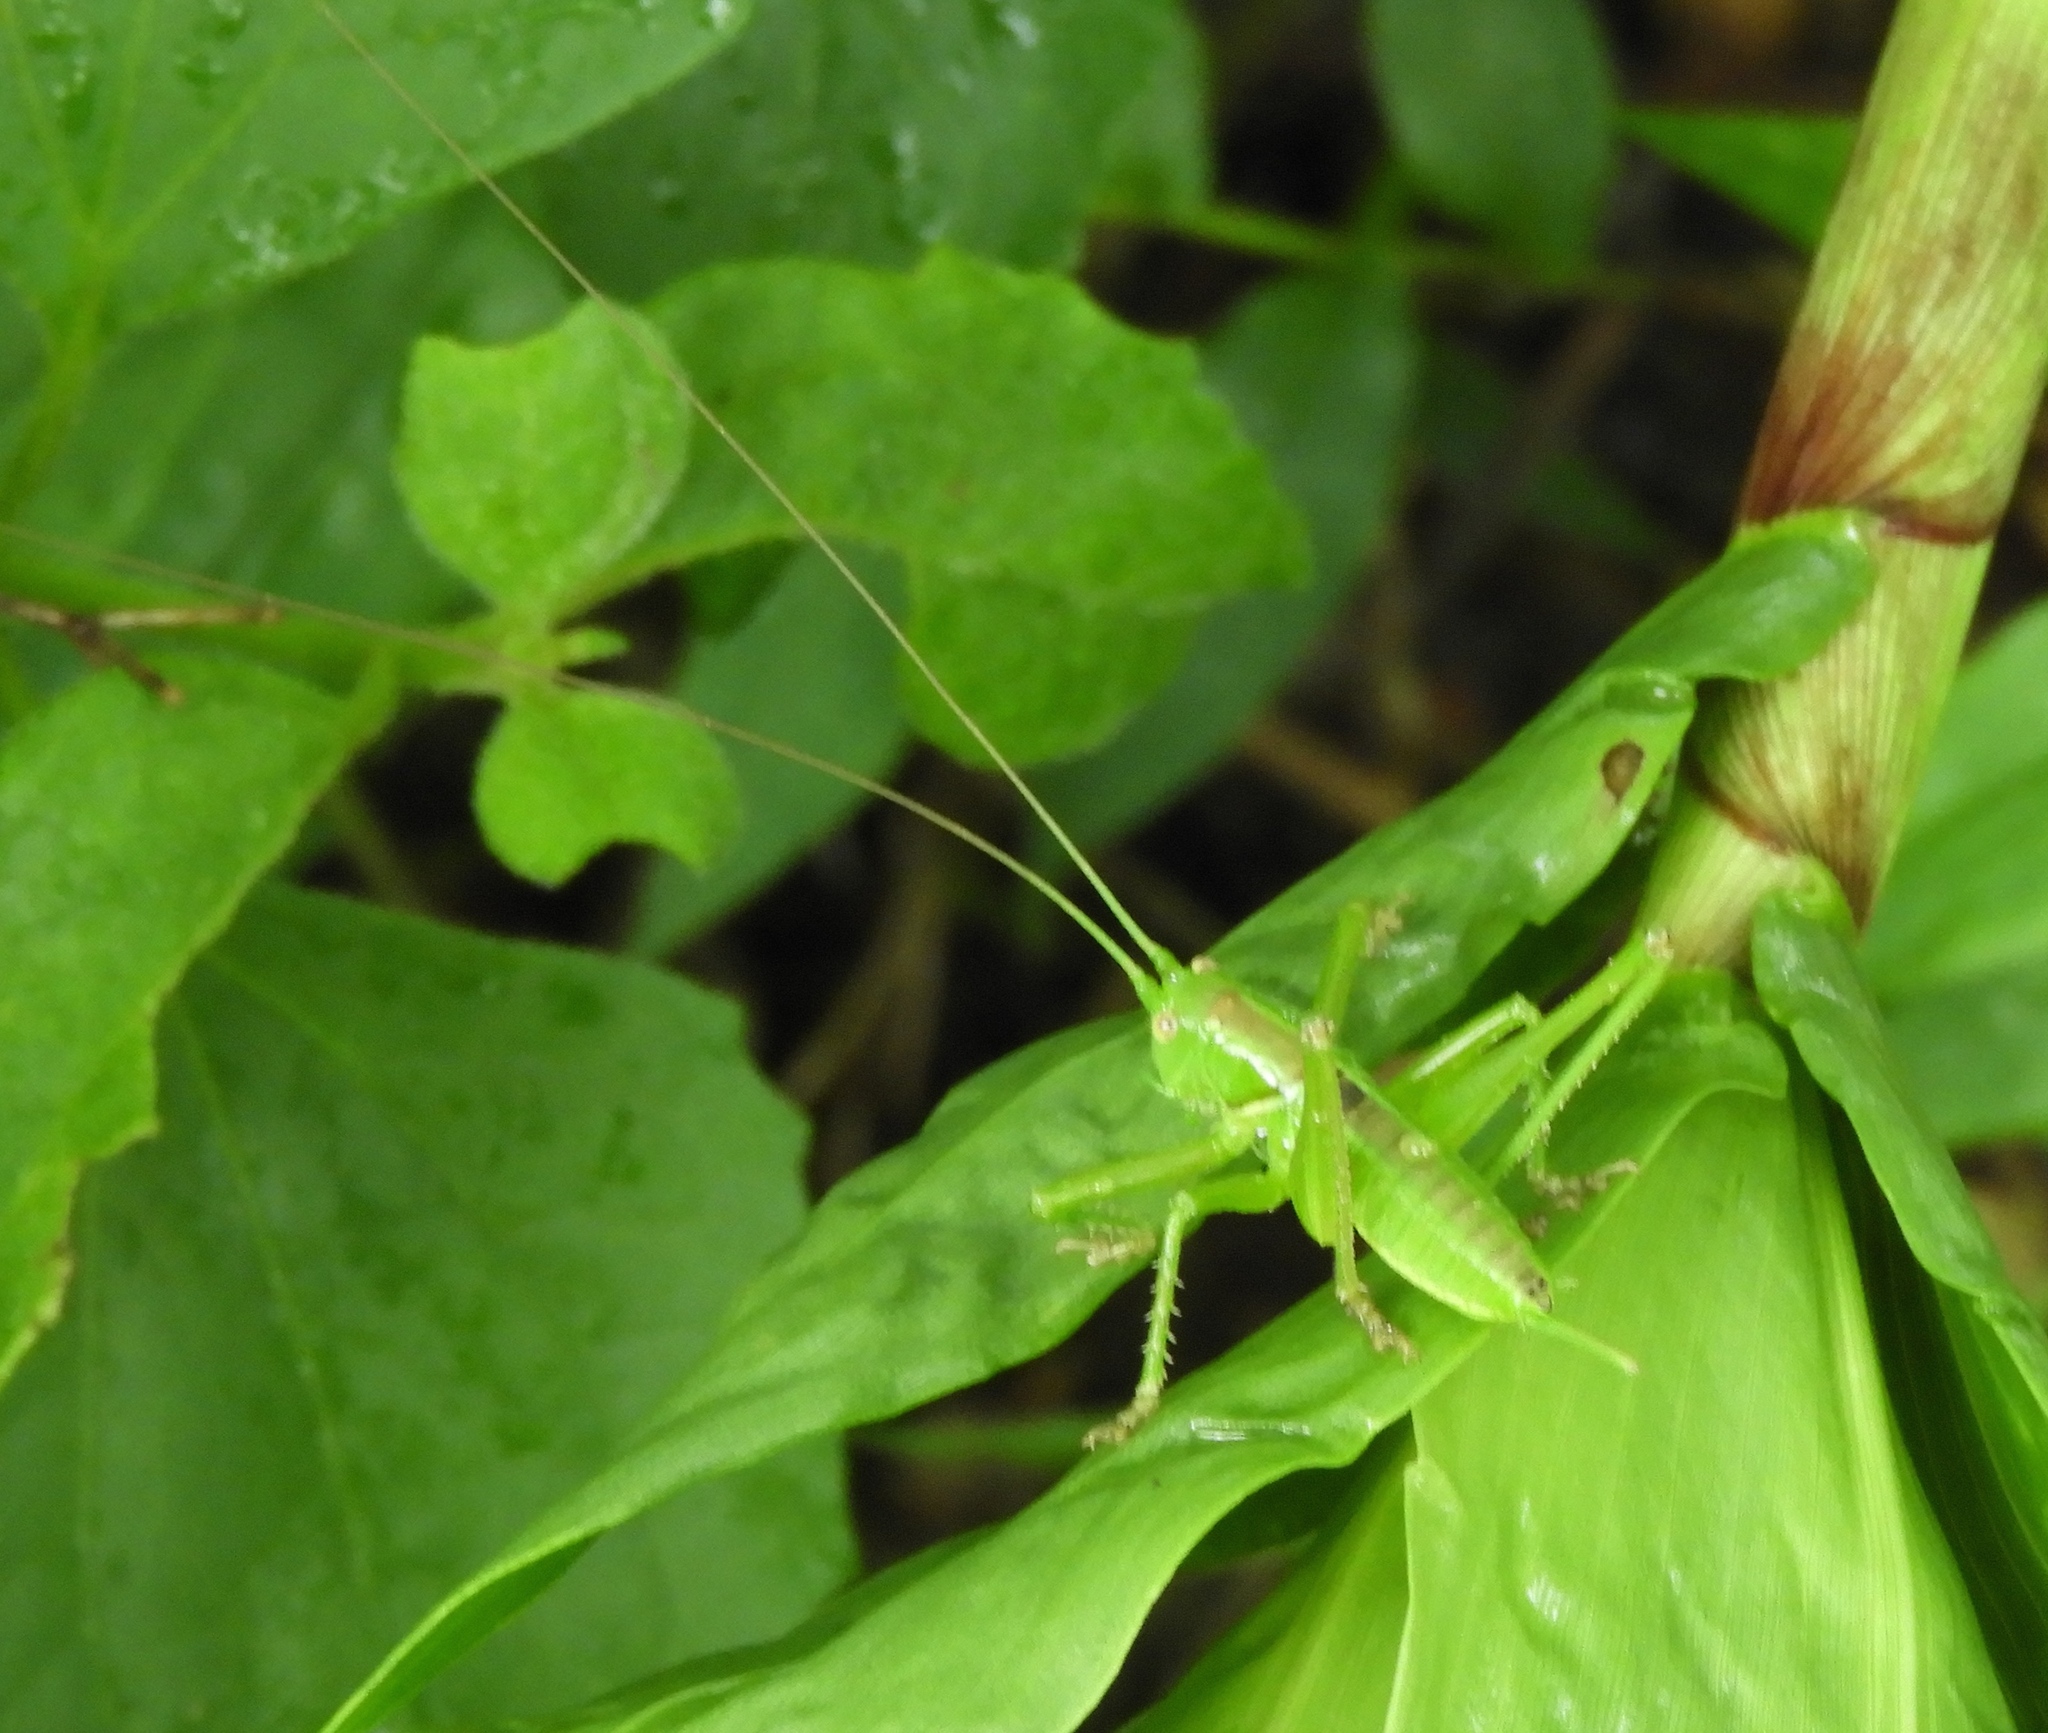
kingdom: Animalia
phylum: Arthropoda
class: Insecta
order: Orthoptera
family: Tettigoniidae
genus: Neobarrettia
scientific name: Neobarrettia sinaloae
